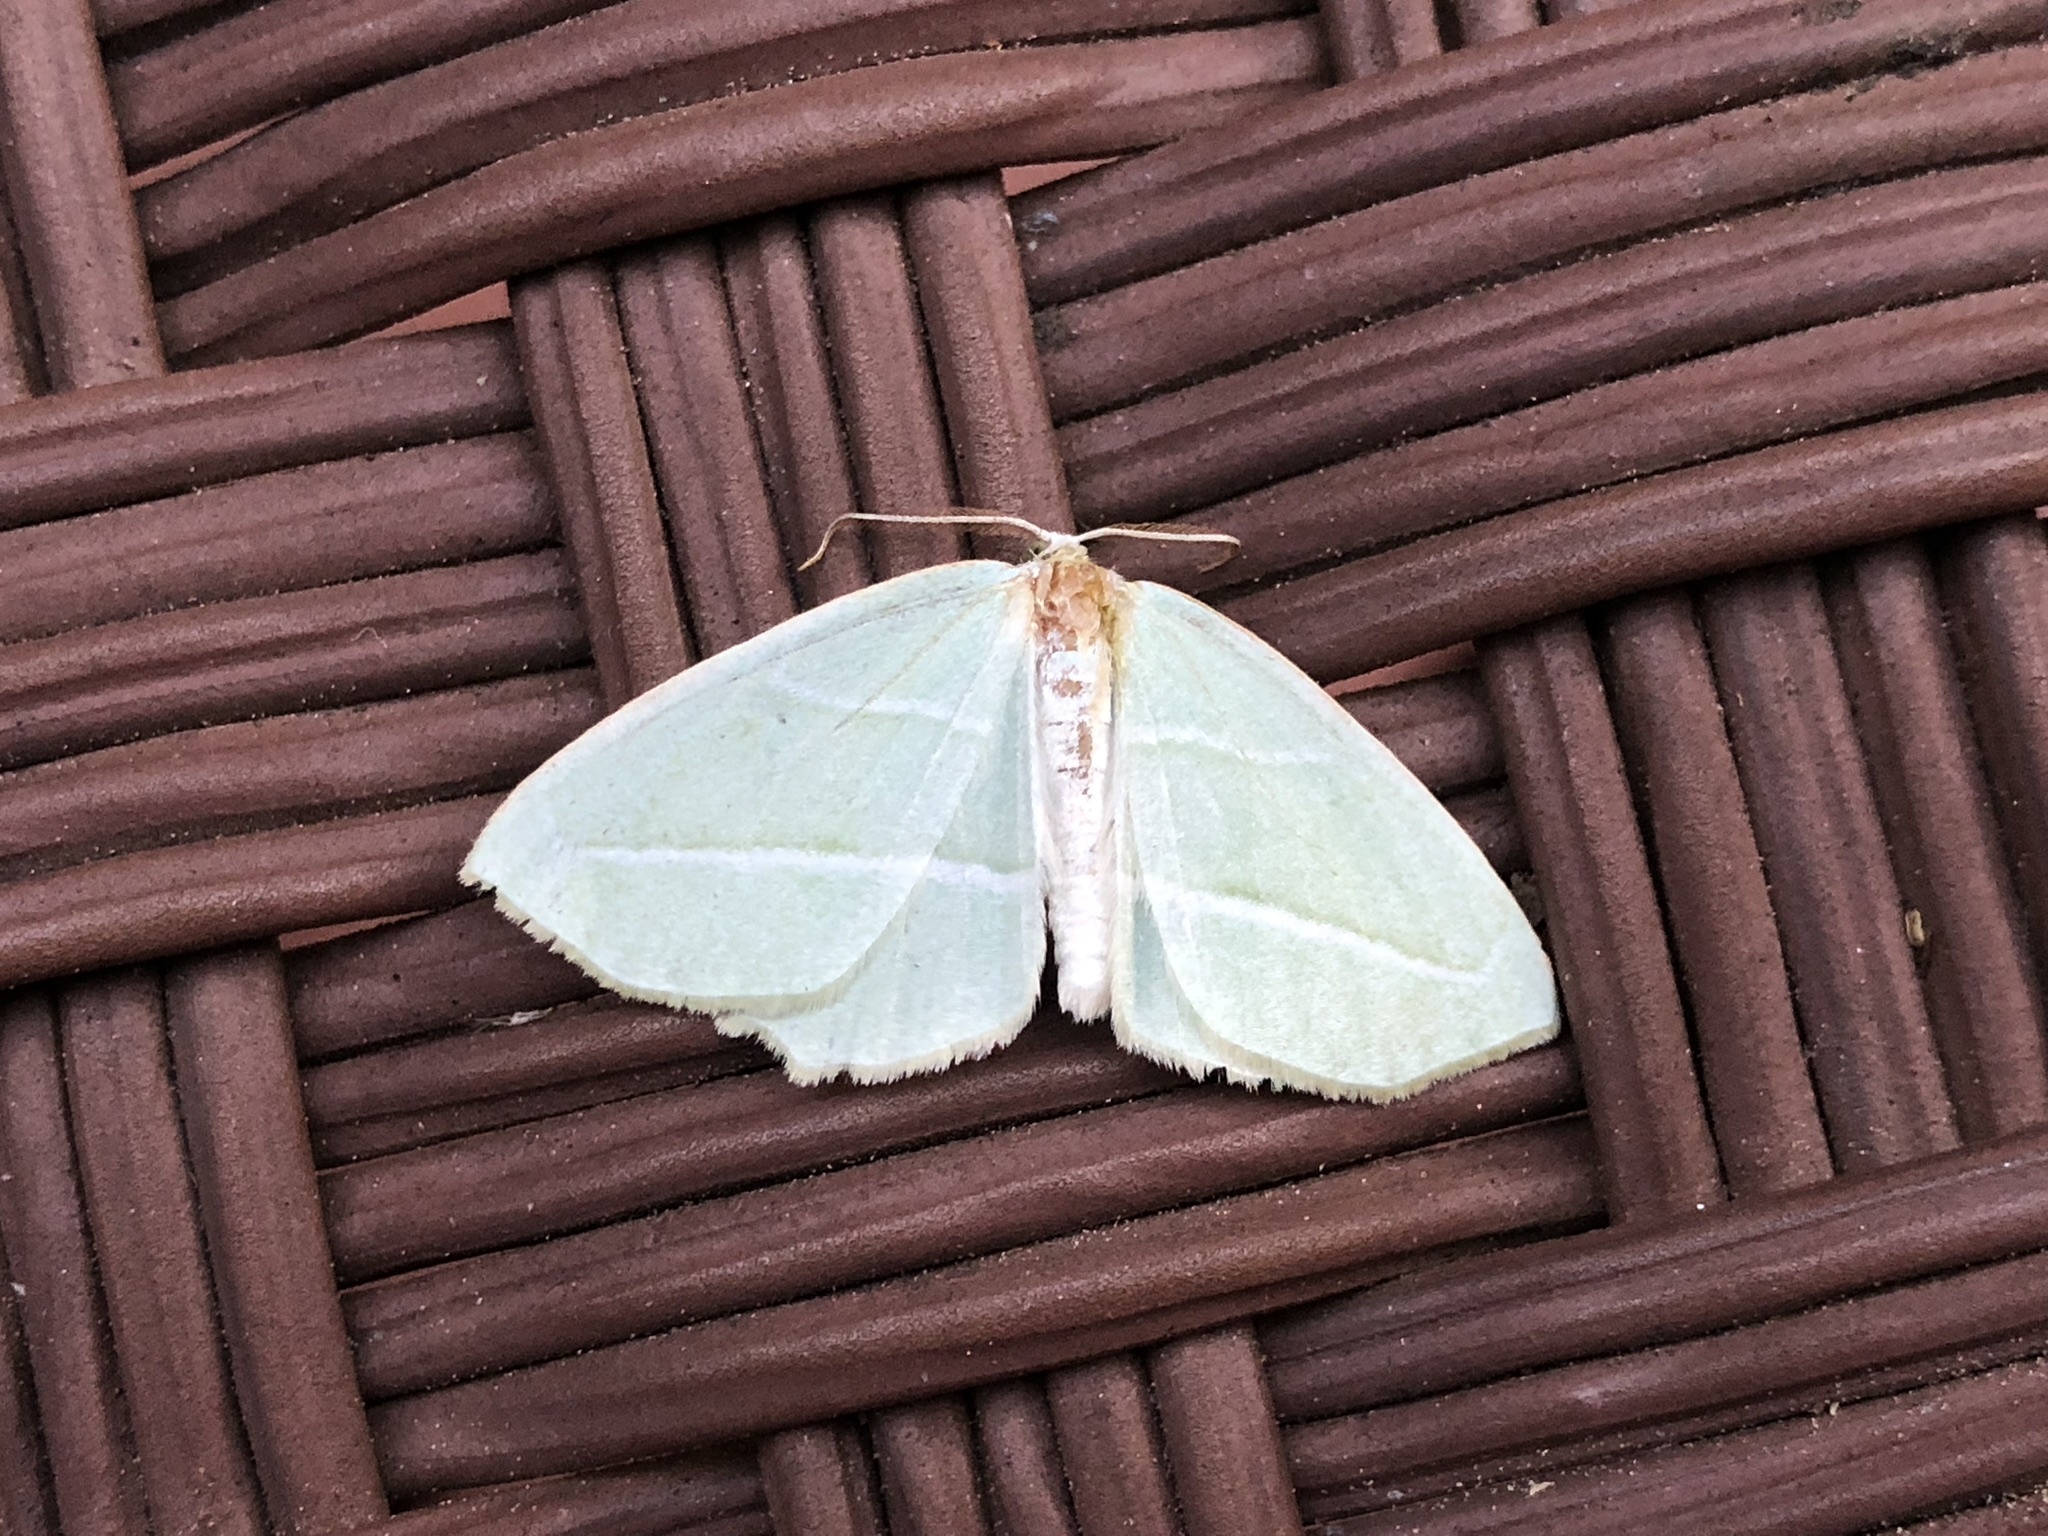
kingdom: Animalia
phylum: Arthropoda
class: Insecta
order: Lepidoptera
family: Geometridae
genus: Campaea
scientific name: Campaea perlata
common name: Fringed looper
